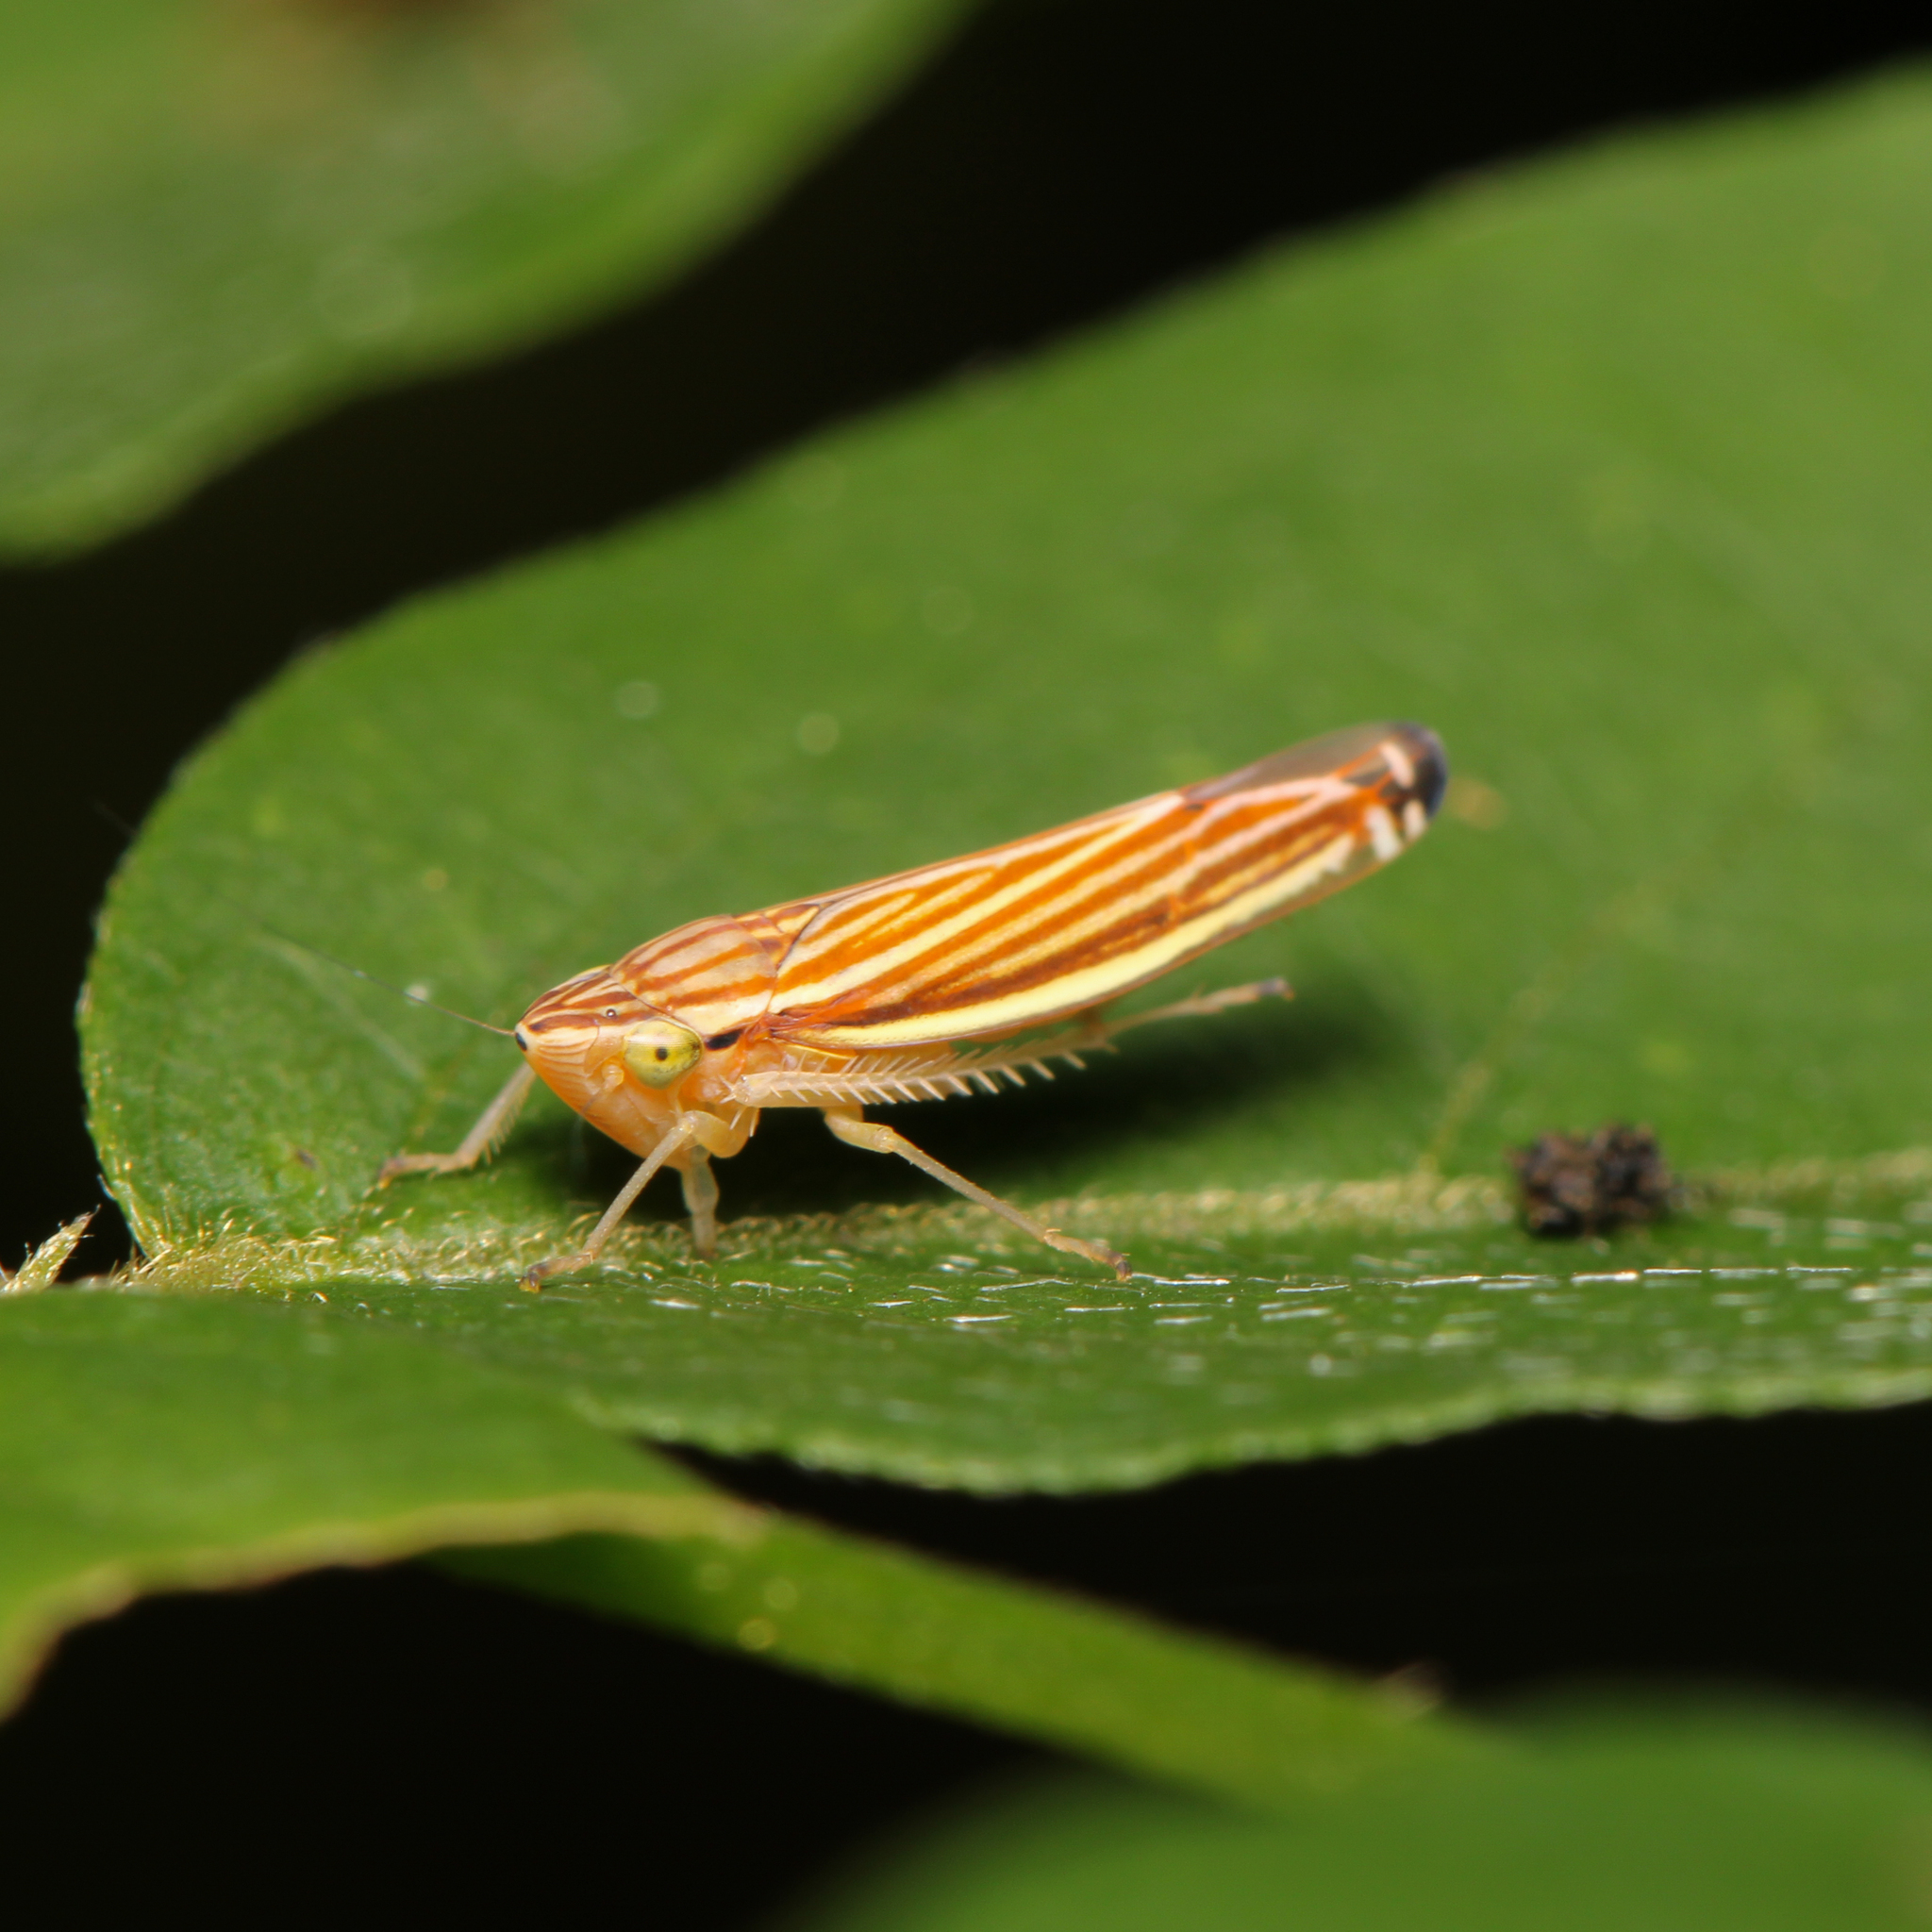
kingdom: Animalia
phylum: Arthropoda
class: Insecta
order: Hemiptera
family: Cicadellidae
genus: Sibovia
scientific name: Sibovia occatoria
